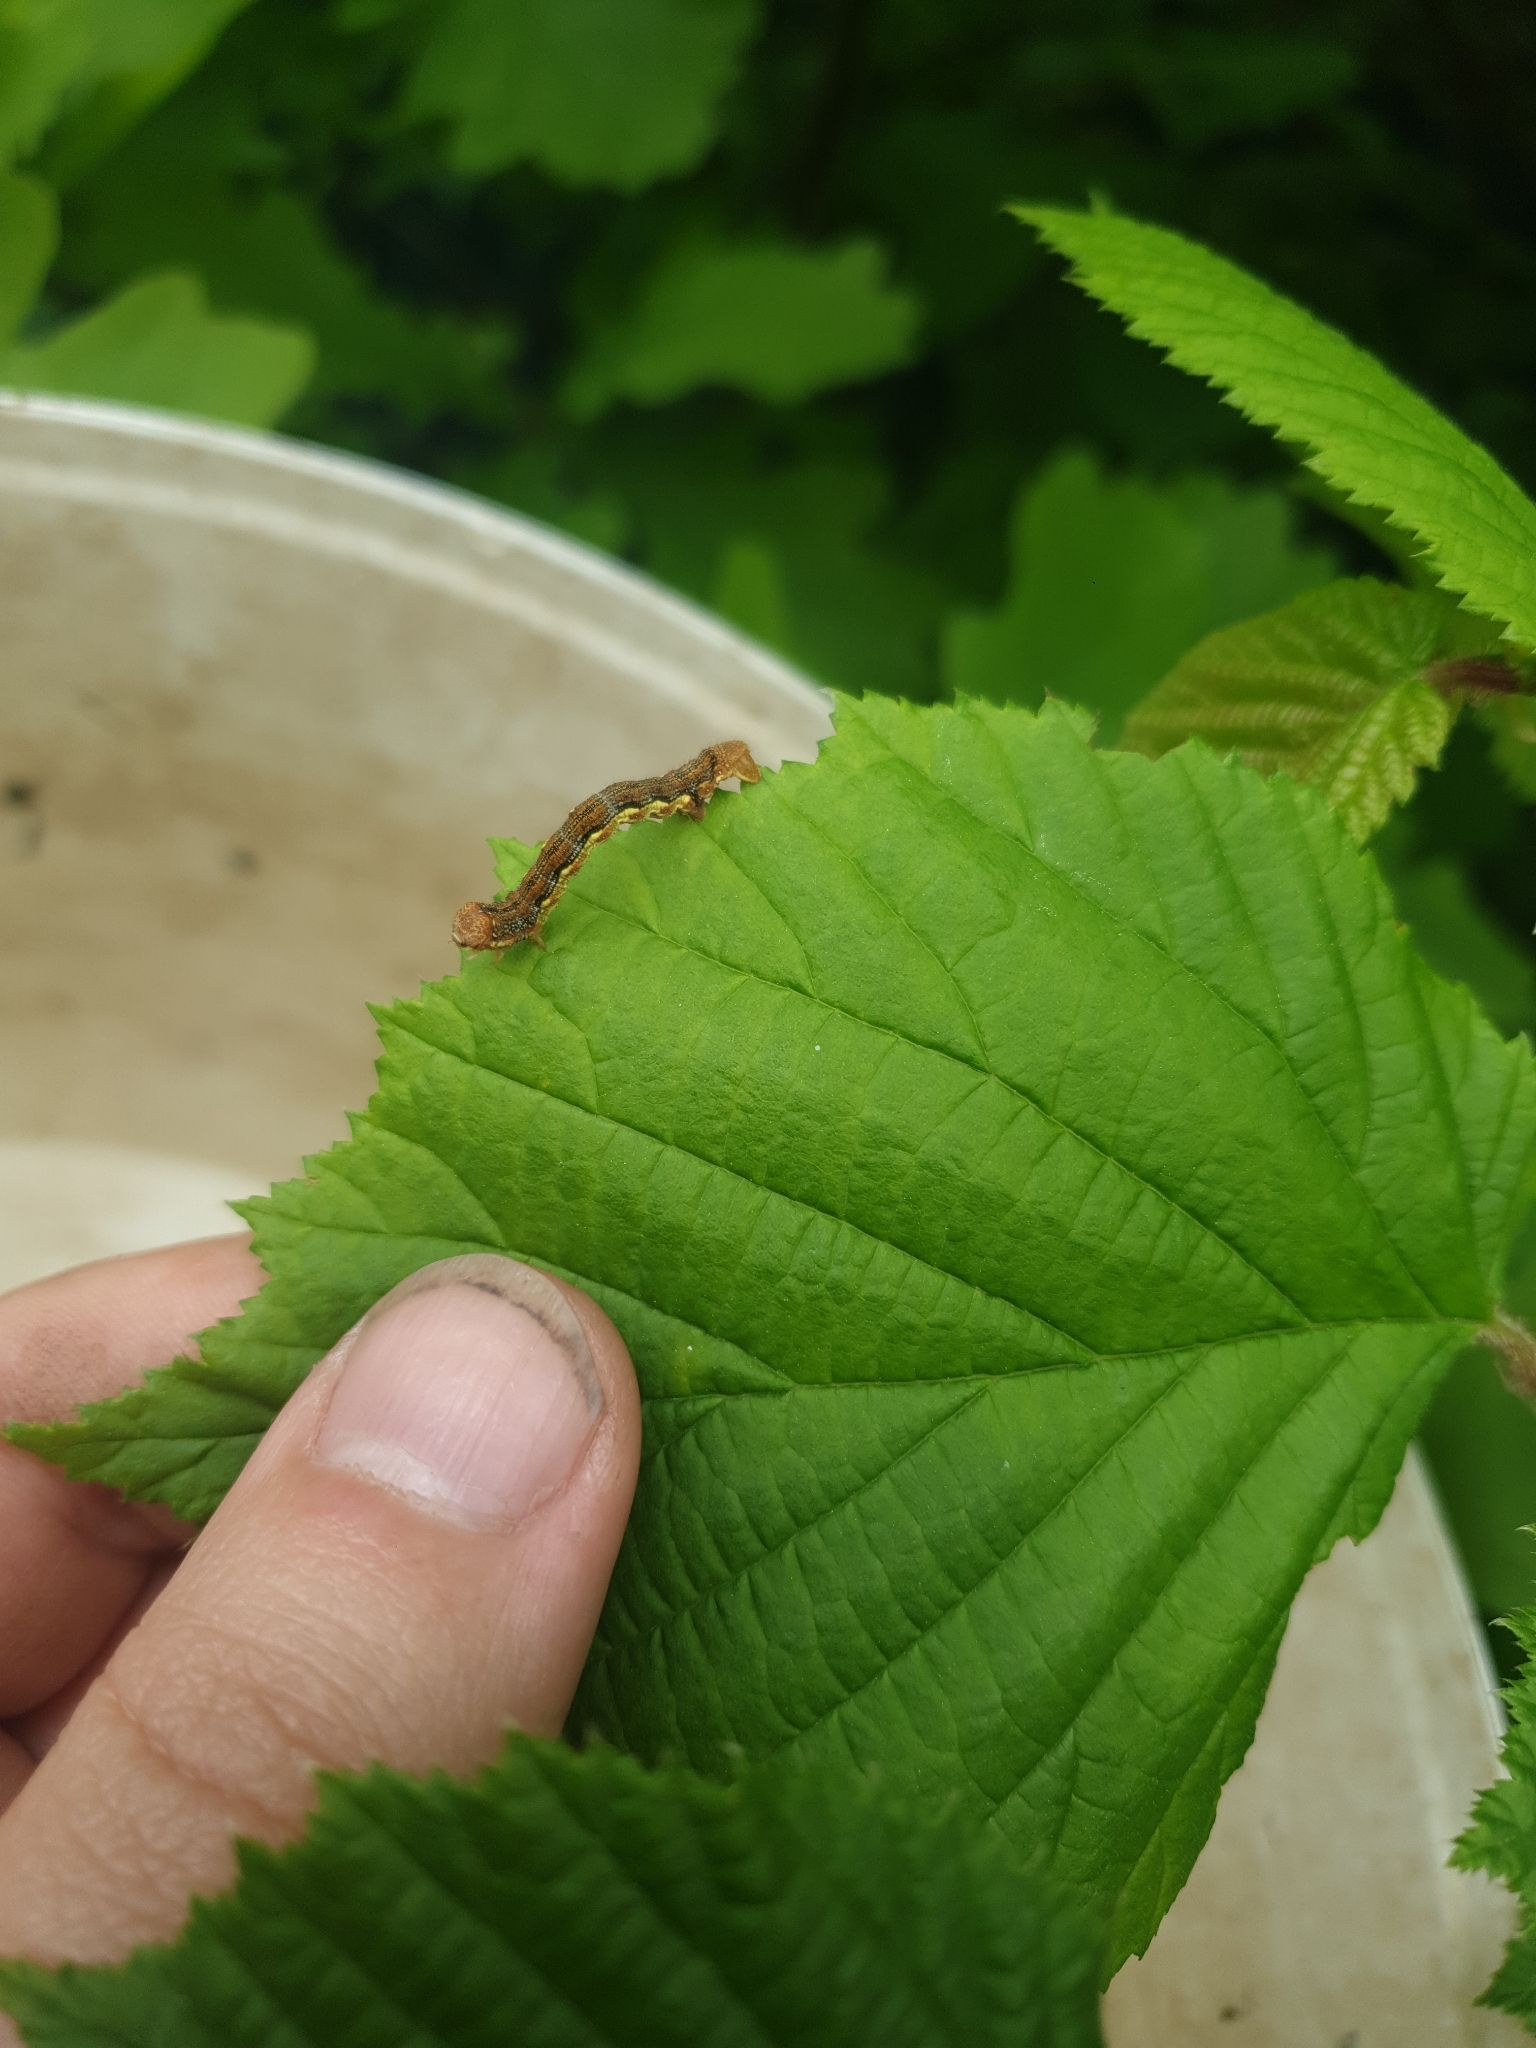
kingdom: Animalia
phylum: Arthropoda
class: Insecta
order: Lepidoptera
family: Geometridae
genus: Erannis
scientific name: Erannis defoliaria
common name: Mottled umber
